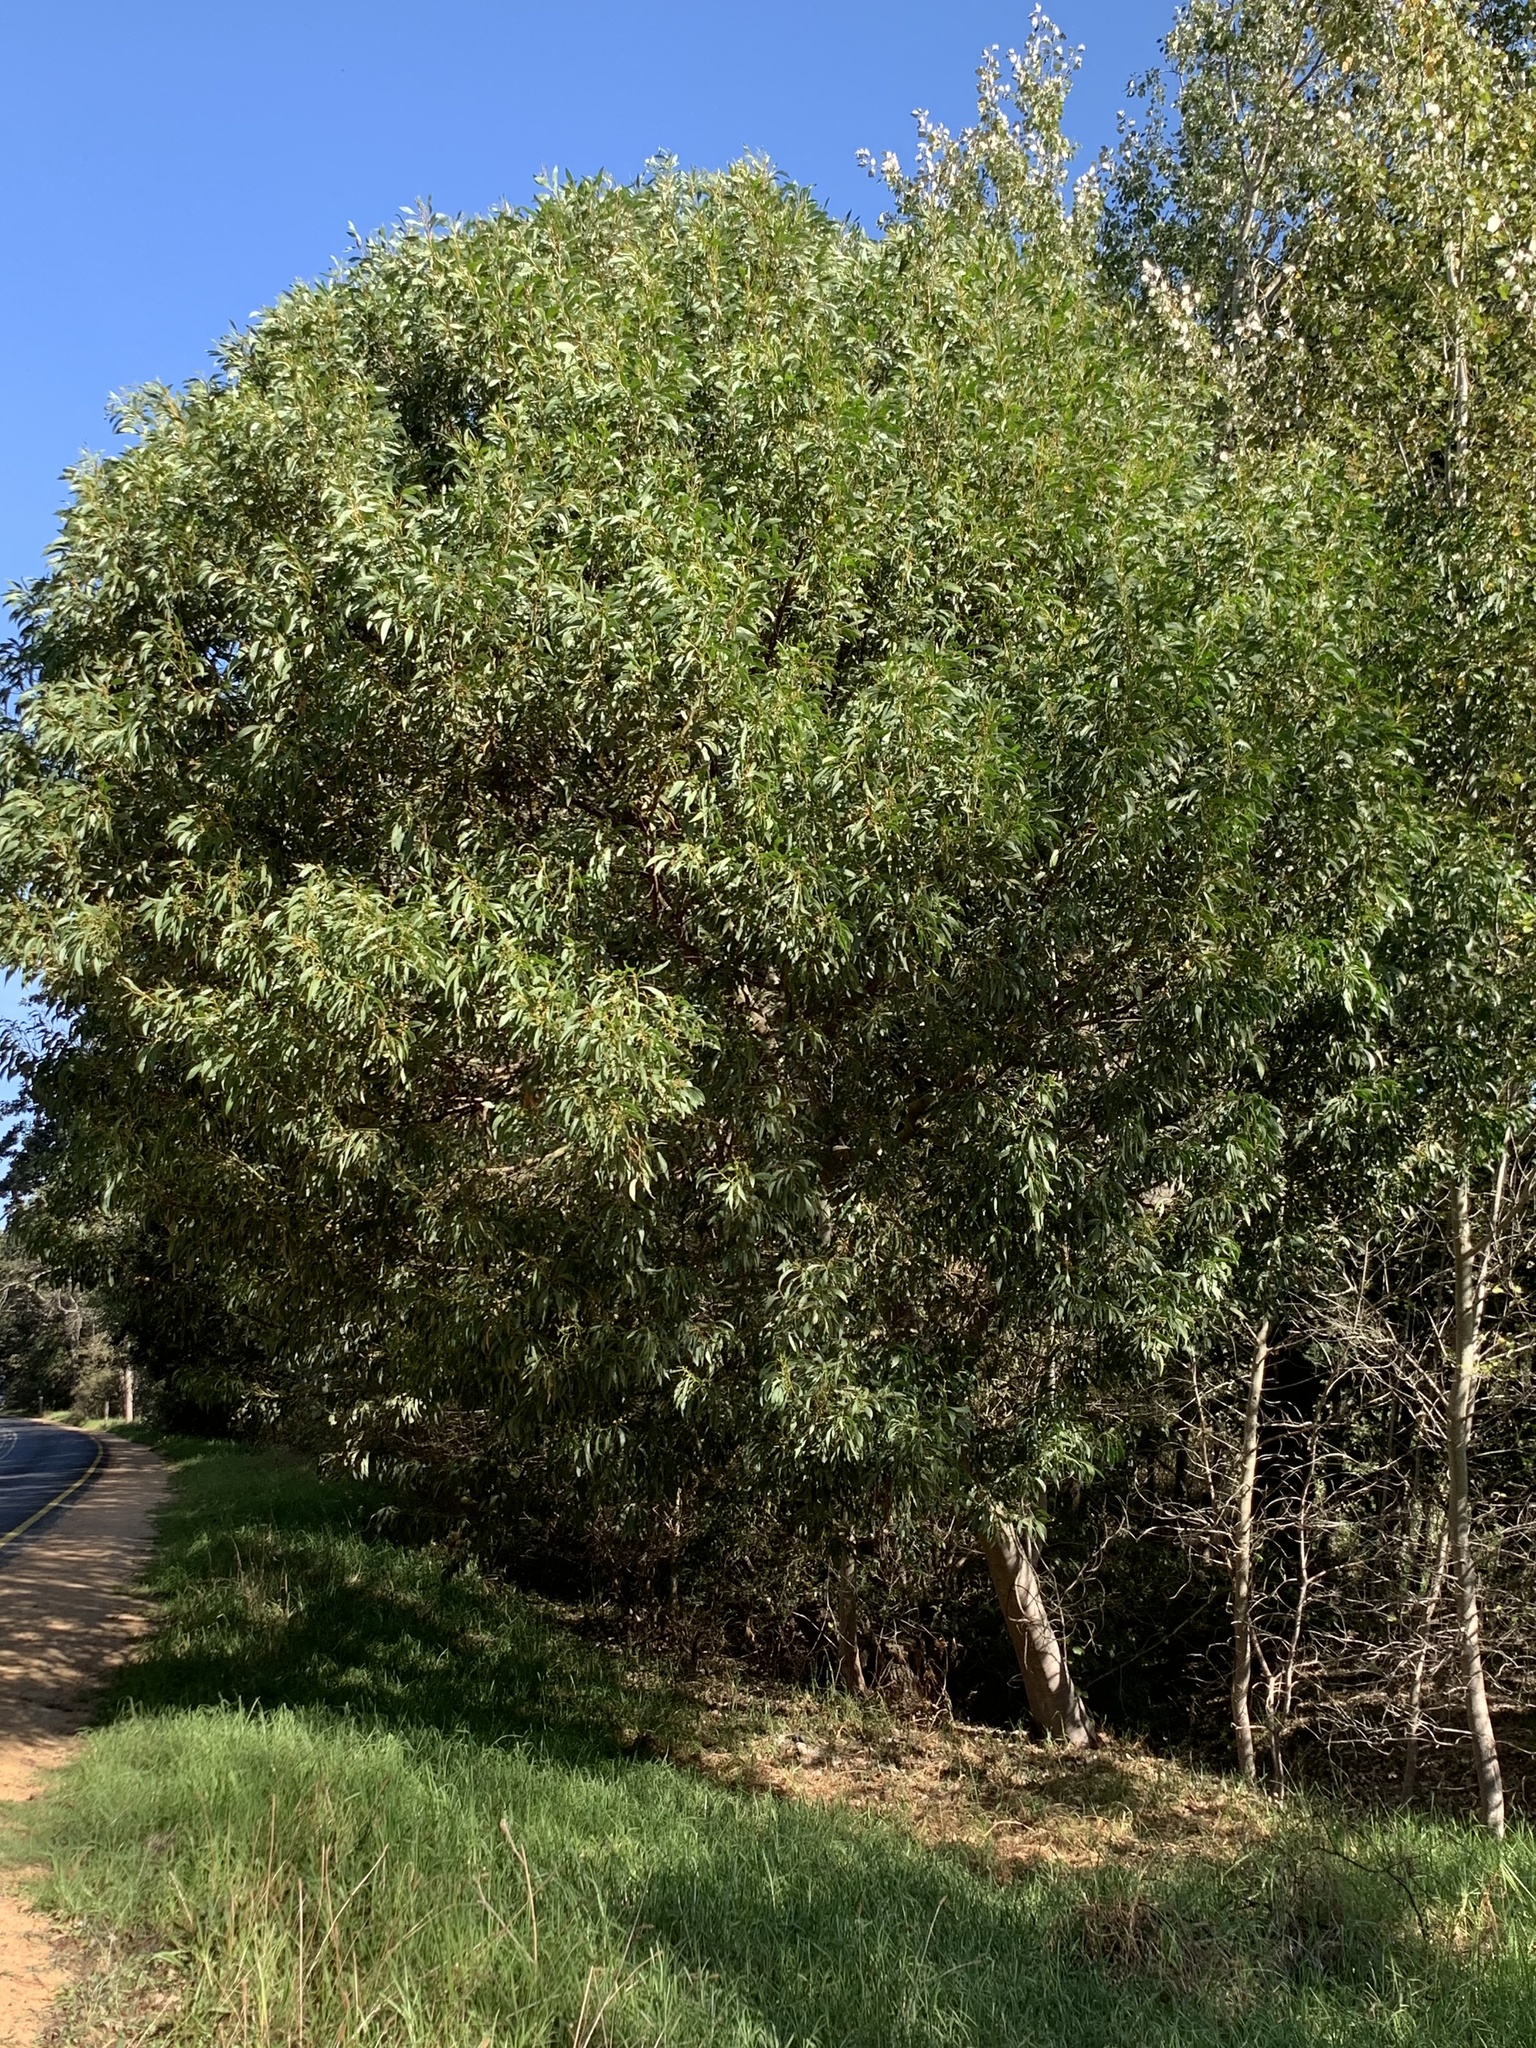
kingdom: Plantae
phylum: Tracheophyta
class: Magnoliopsida
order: Fabales
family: Fabaceae
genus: Acacia
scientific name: Acacia pycnantha
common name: Golden wattle
